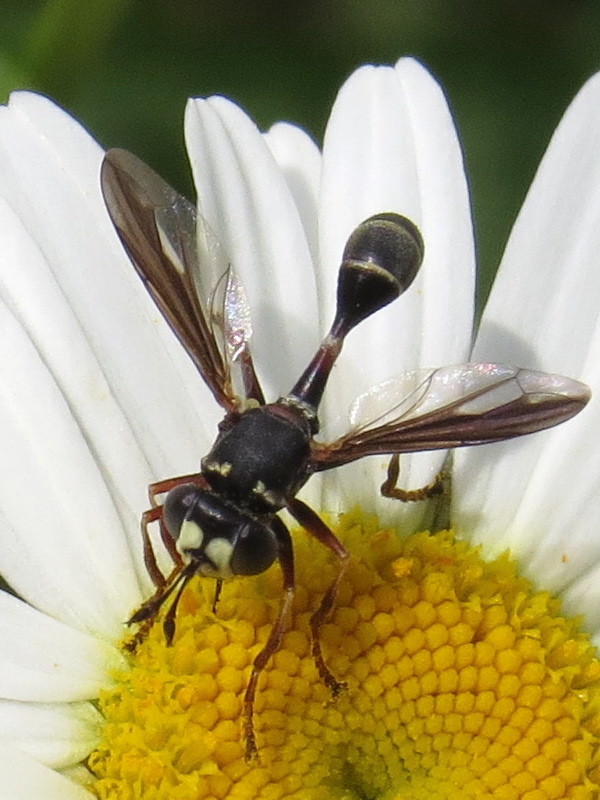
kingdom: Animalia
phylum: Arthropoda
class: Insecta
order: Diptera
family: Conopidae
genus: Physocephala
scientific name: Physocephala marginata
